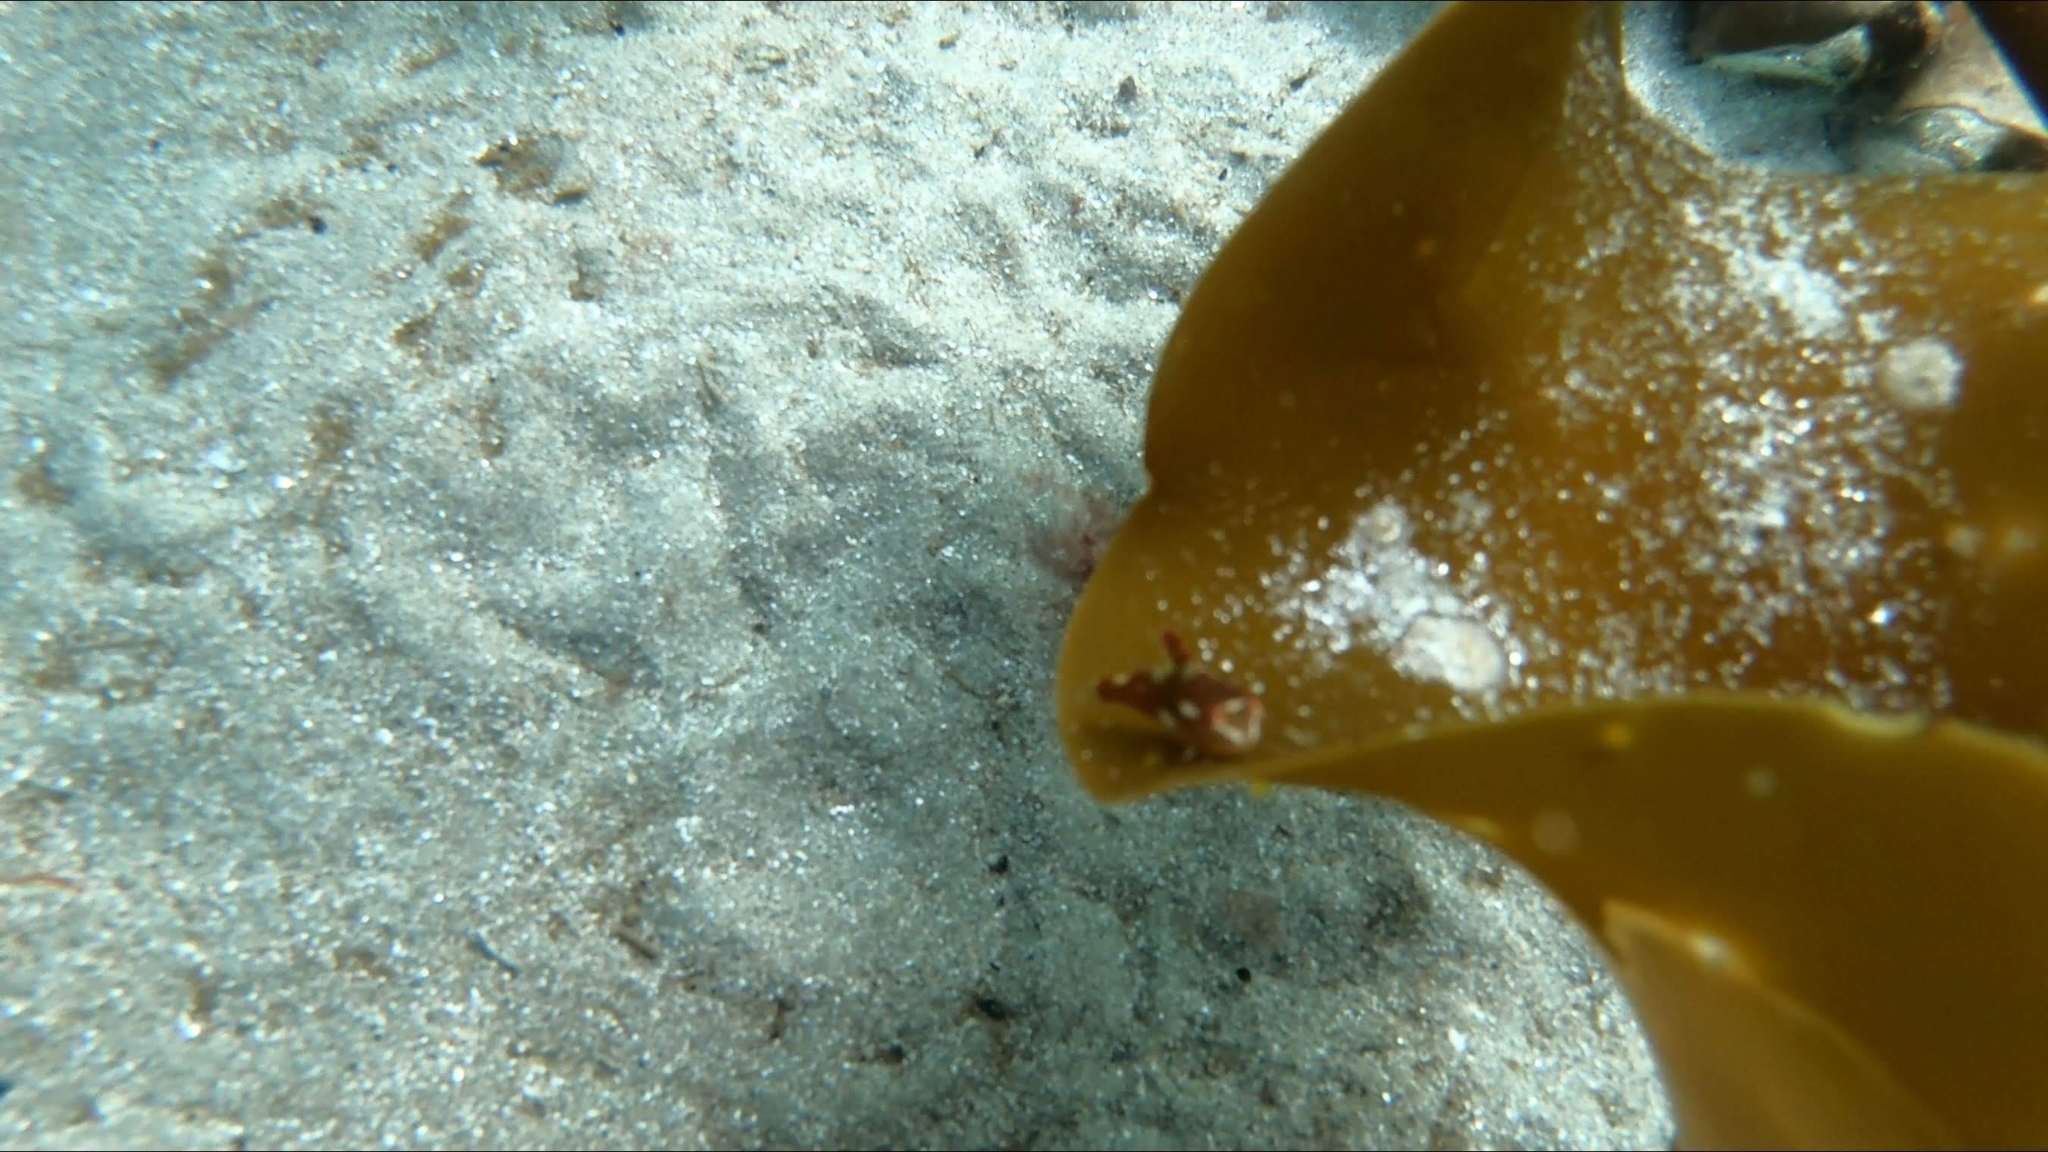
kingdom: Animalia
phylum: Chordata
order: Scorpaeniformes
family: Cyclopteridae
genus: Cyclopterus
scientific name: Cyclopterus lumpus
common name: Lumpsucker
